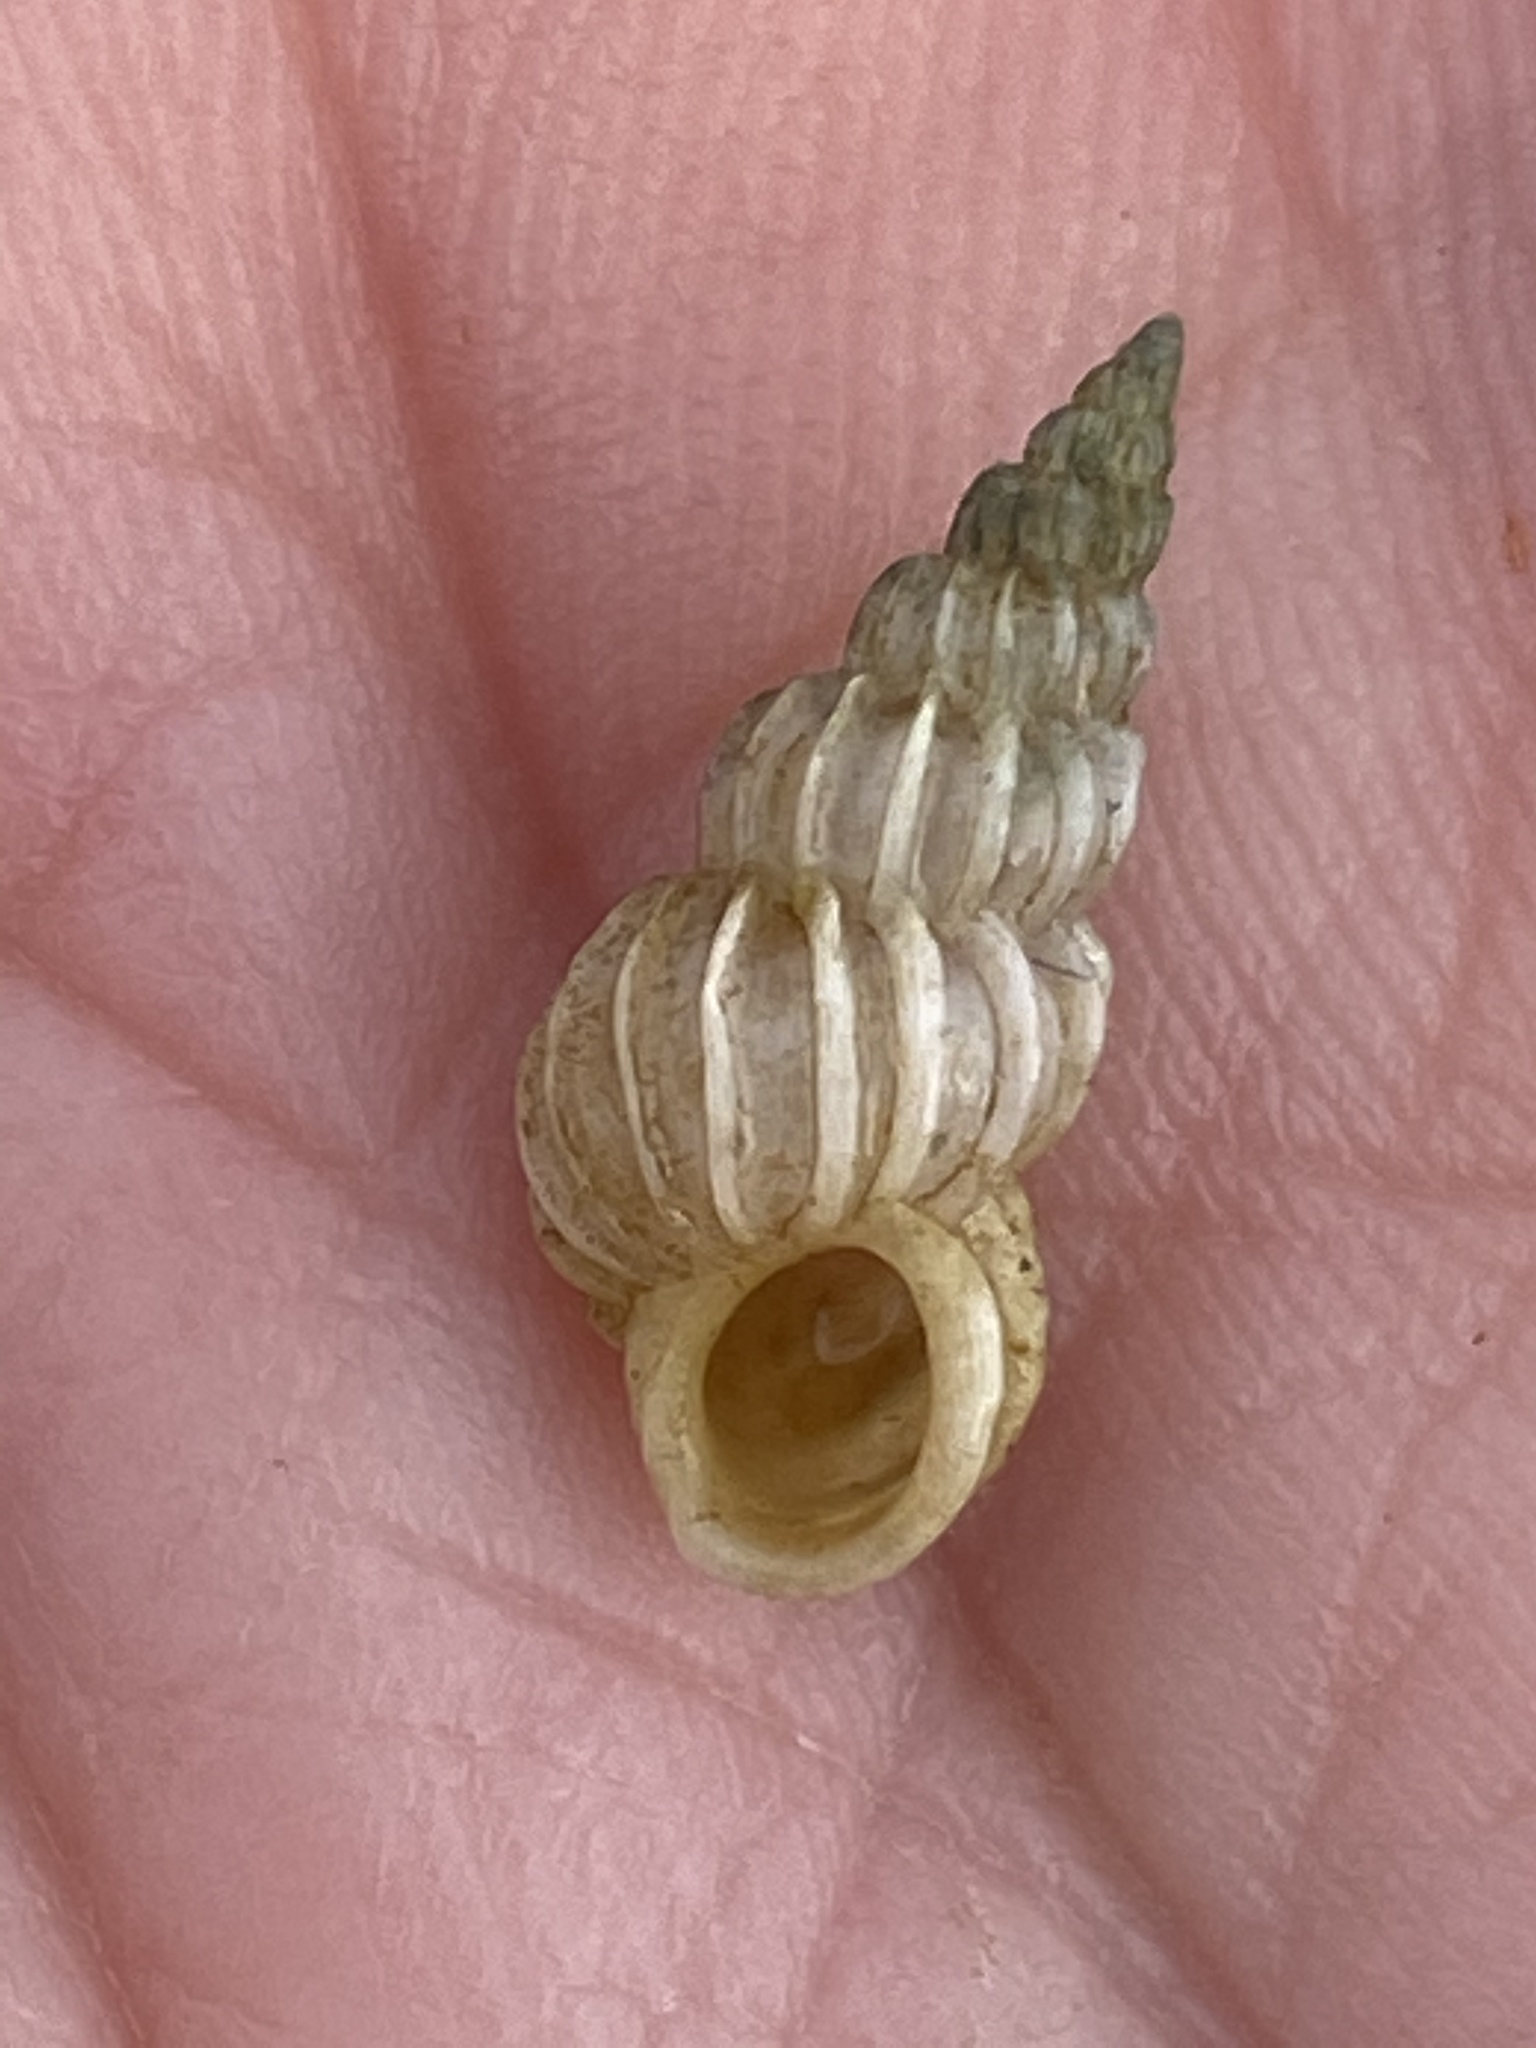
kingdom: Animalia
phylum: Mollusca
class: Gastropoda
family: Epitoniidae
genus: Epitonium
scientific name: Epitonium tinctum
